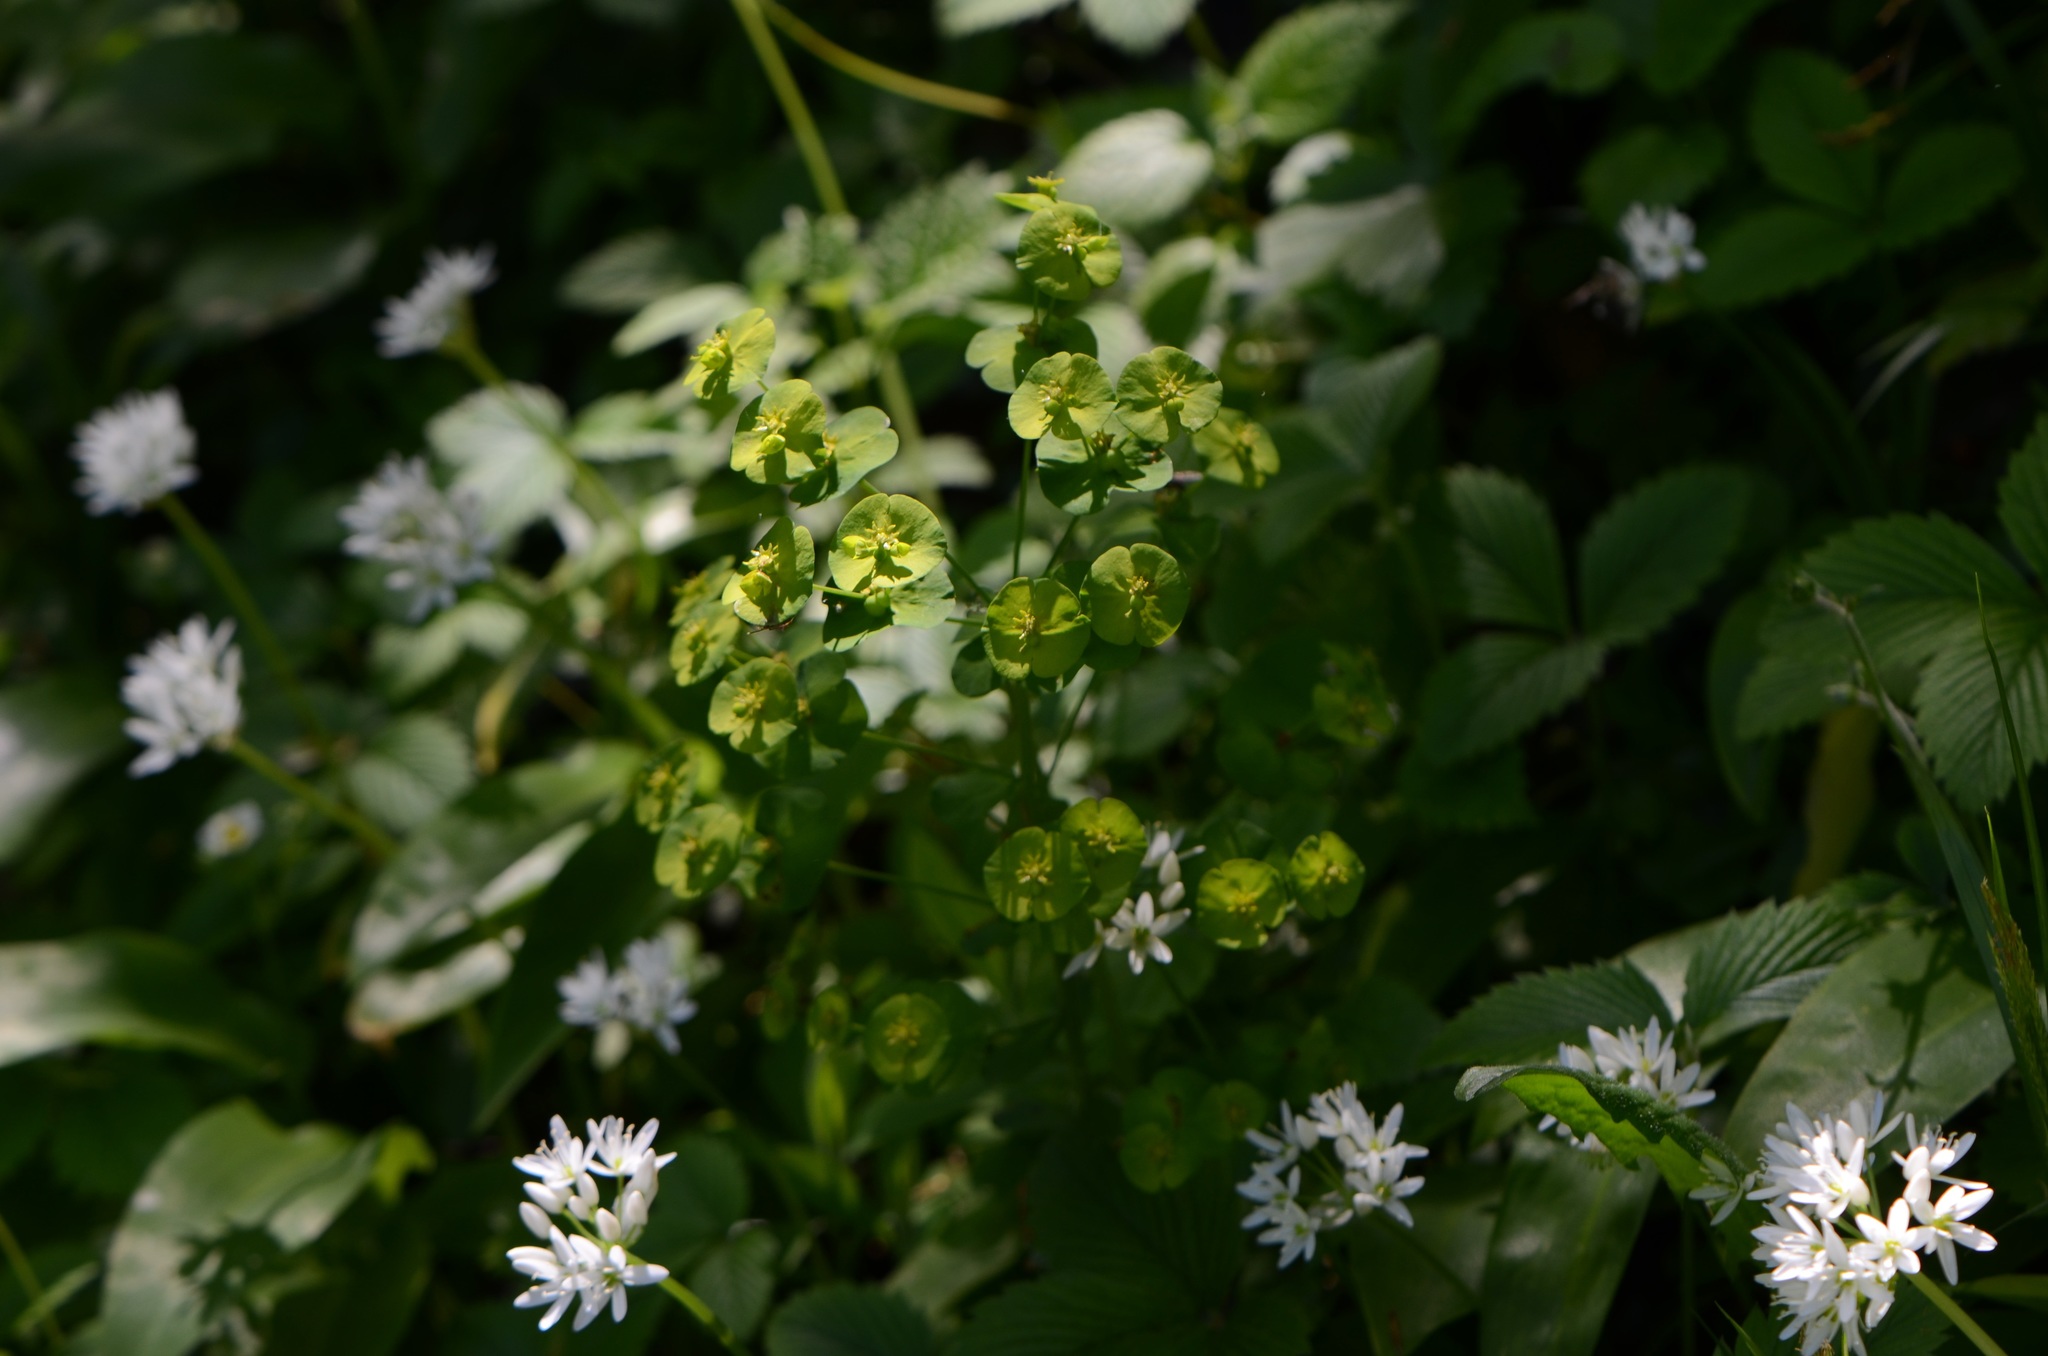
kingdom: Plantae
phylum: Tracheophyta
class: Magnoliopsida
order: Malpighiales
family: Euphorbiaceae
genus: Euphorbia
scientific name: Euphorbia amygdaloides
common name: Wood spurge
